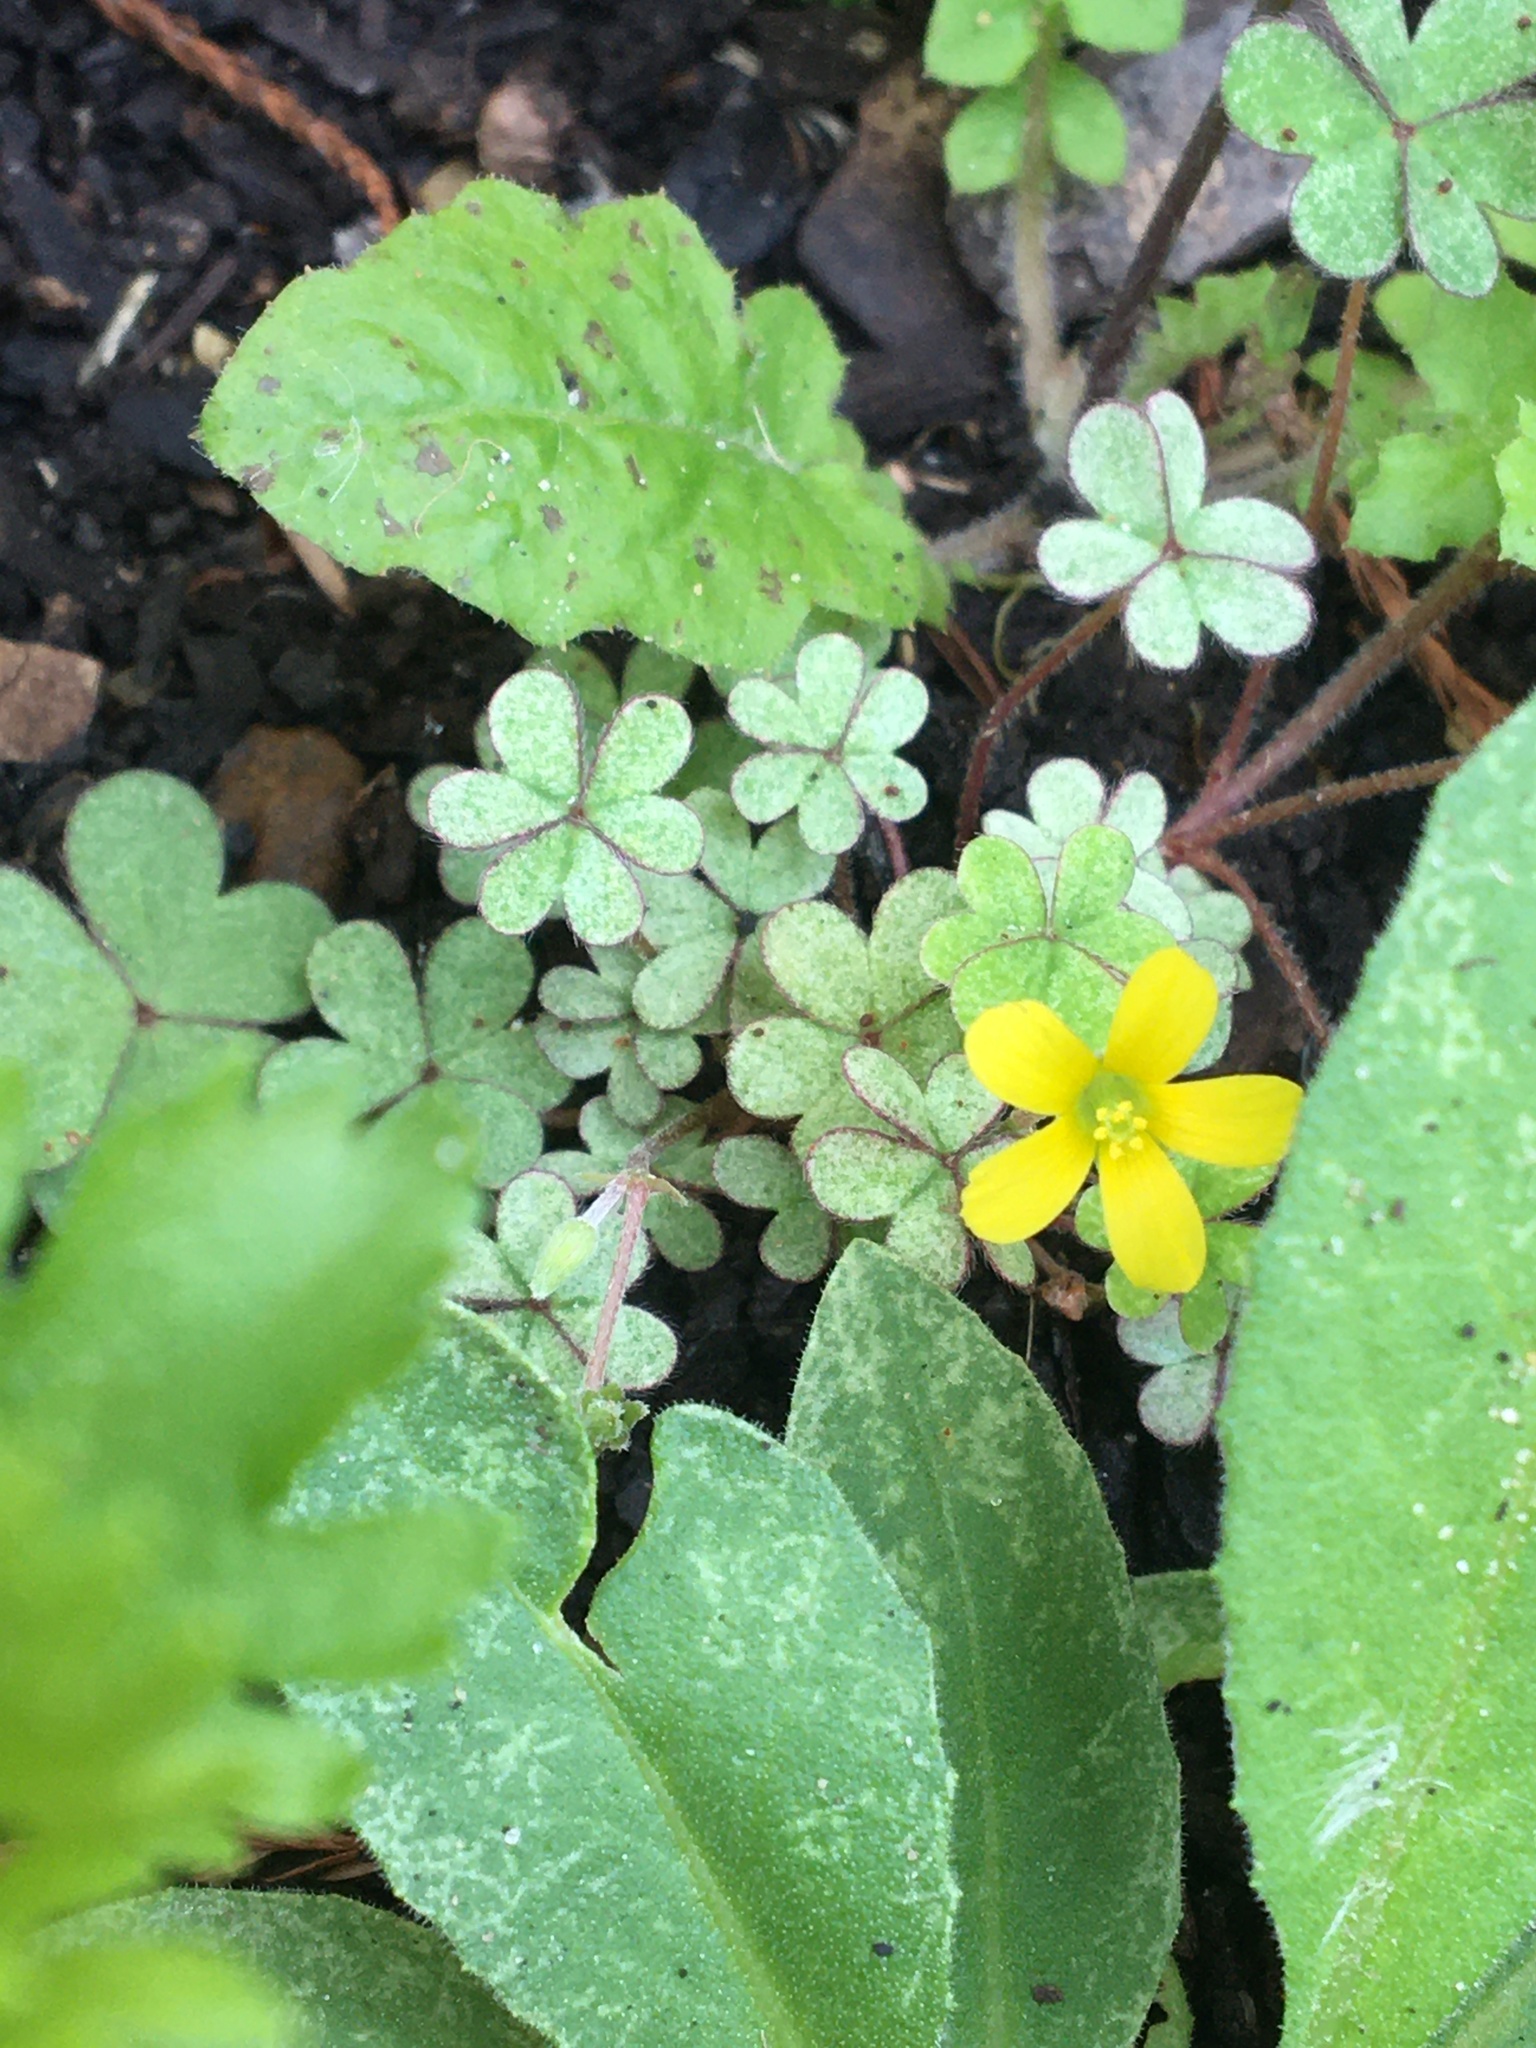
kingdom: Plantae
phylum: Tracheophyta
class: Magnoliopsida
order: Oxalidales
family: Oxalidaceae
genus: Oxalis
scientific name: Oxalis corniculata
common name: Procumbent yellow-sorrel
